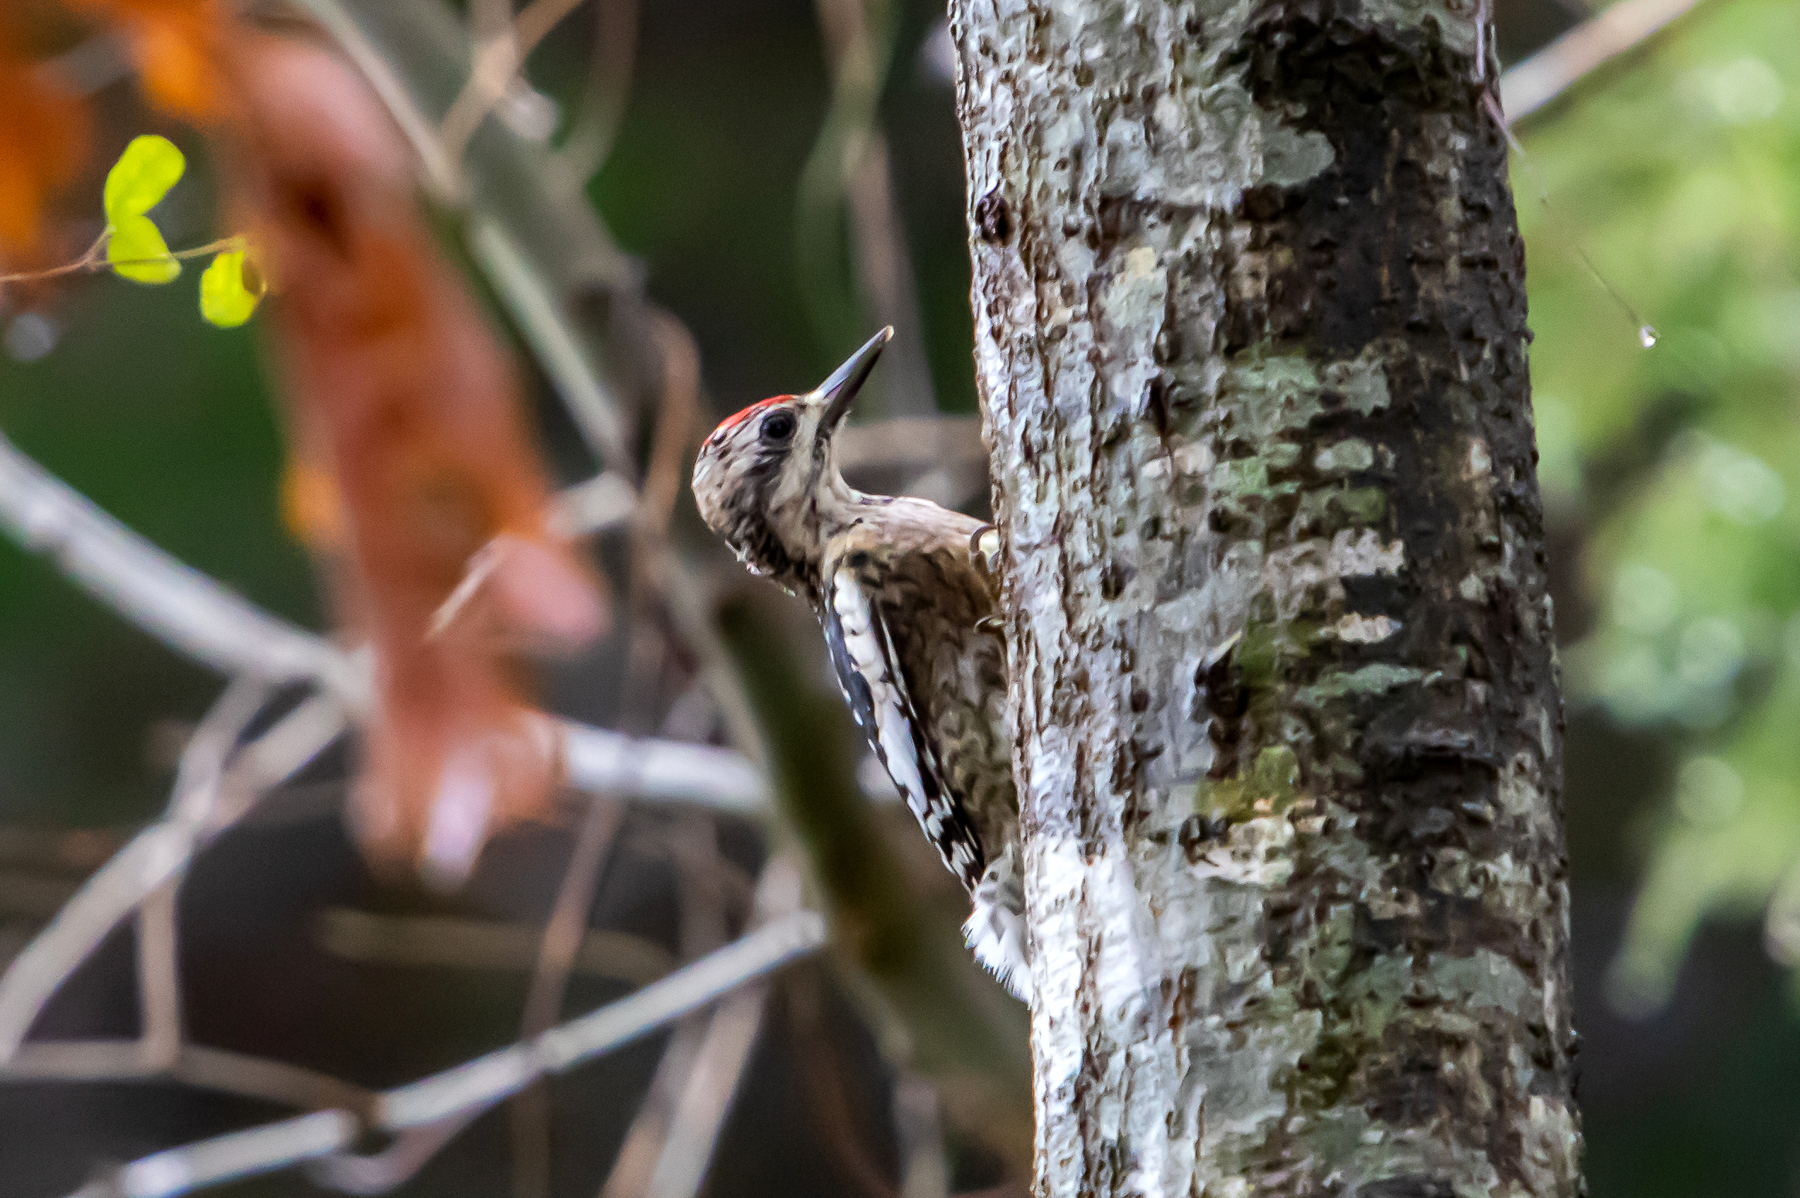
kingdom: Animalia
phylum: Chordata
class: Aves
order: Piciformes
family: Picidae
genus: Sphyrapicus
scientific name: Sphyrapicus varius
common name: Yellow-bellied sapsucker
